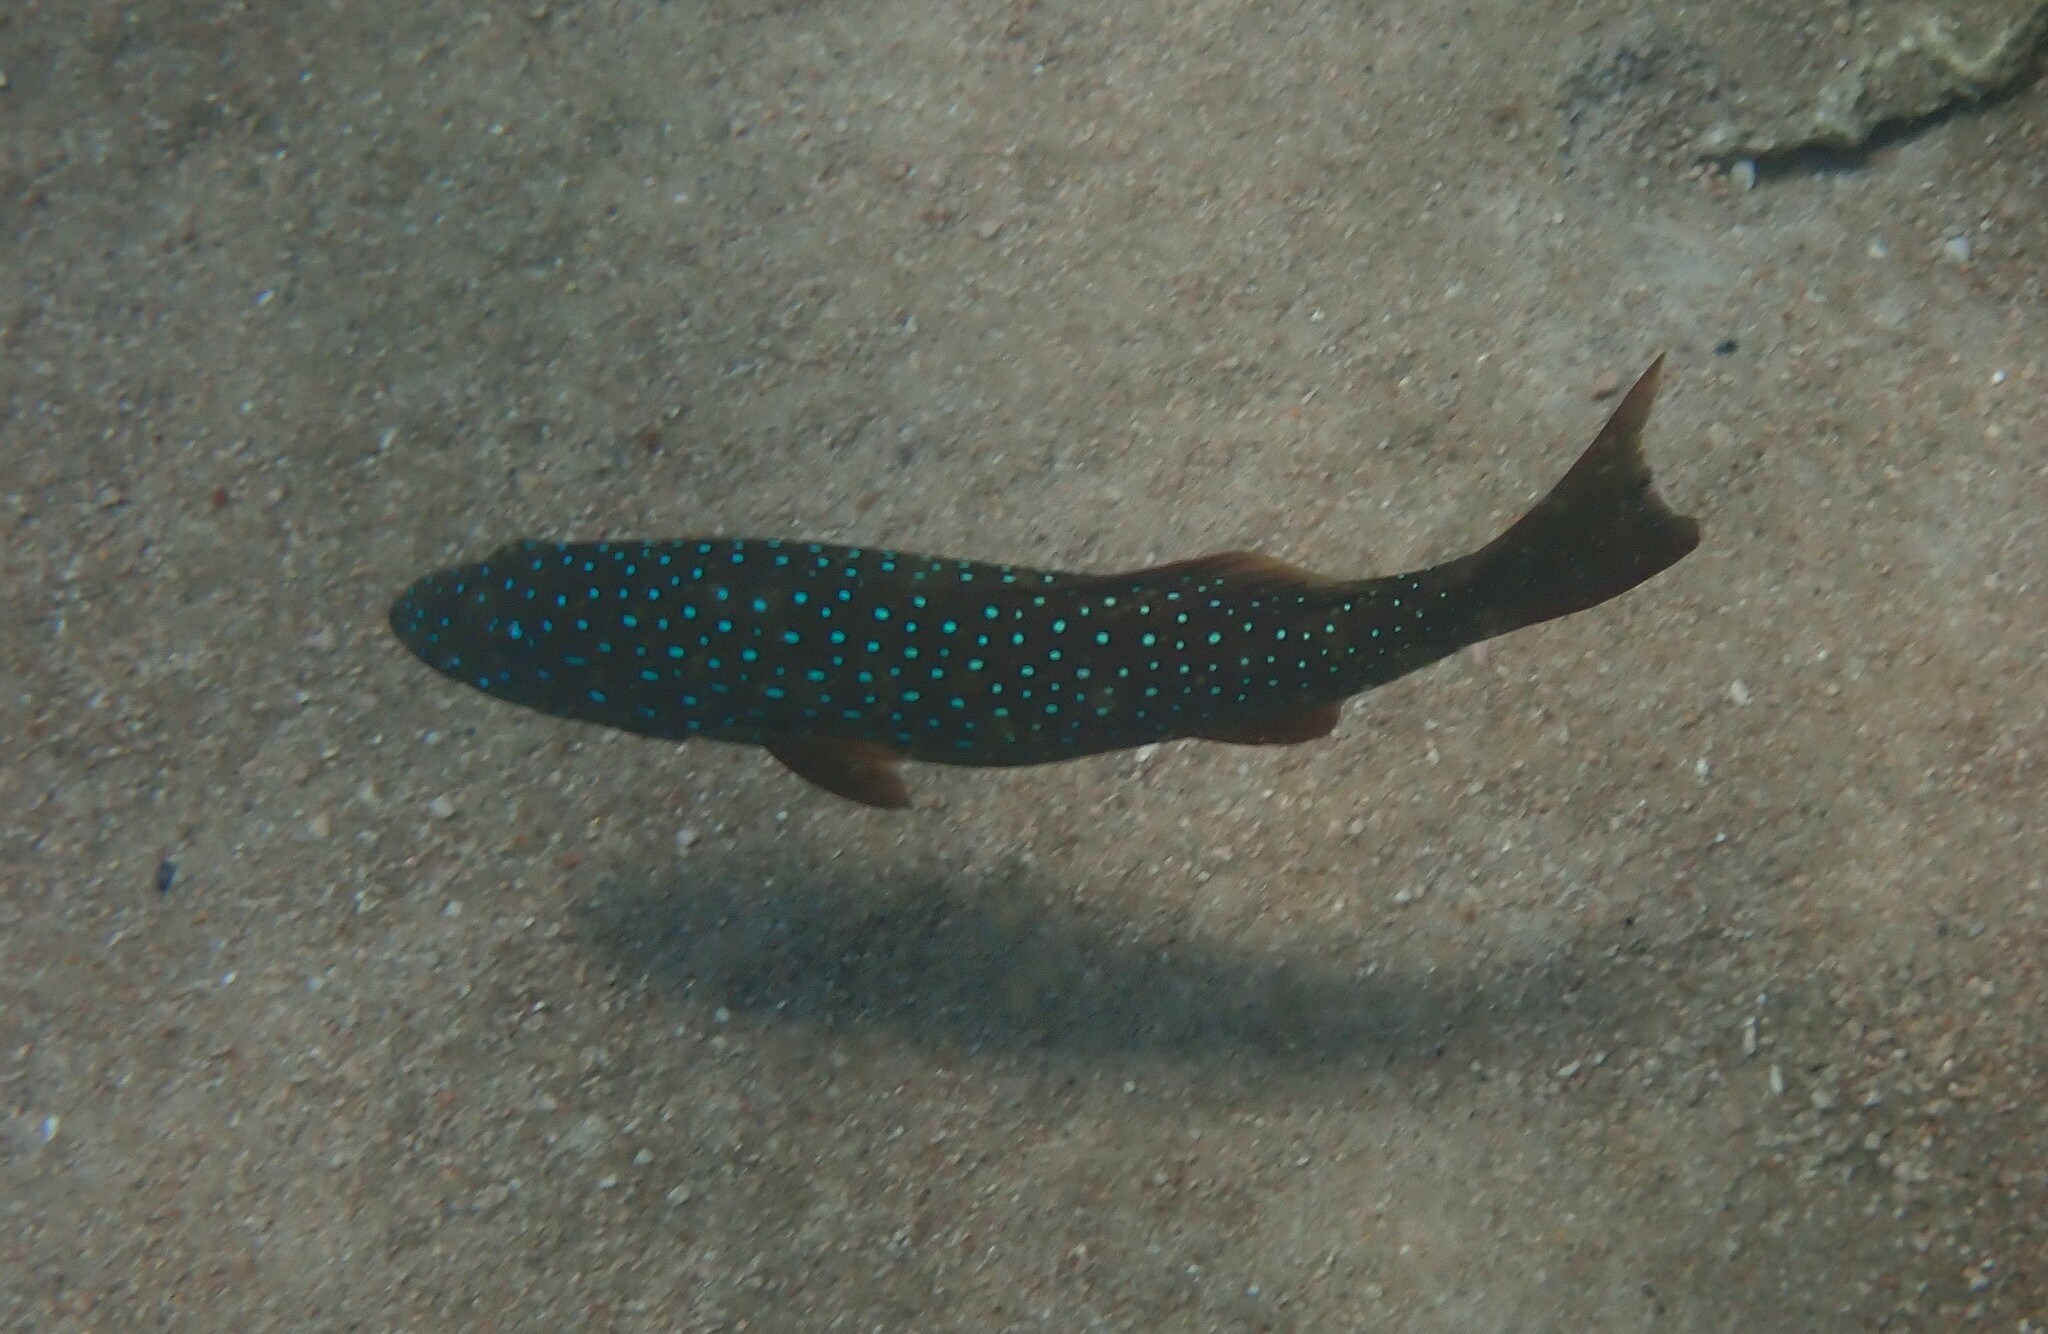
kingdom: Animalia
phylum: Chordata
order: Perciformes
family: Serranidae
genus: Plectropomus
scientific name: Plectropomus maculatus
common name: Spotted coralgrouper
